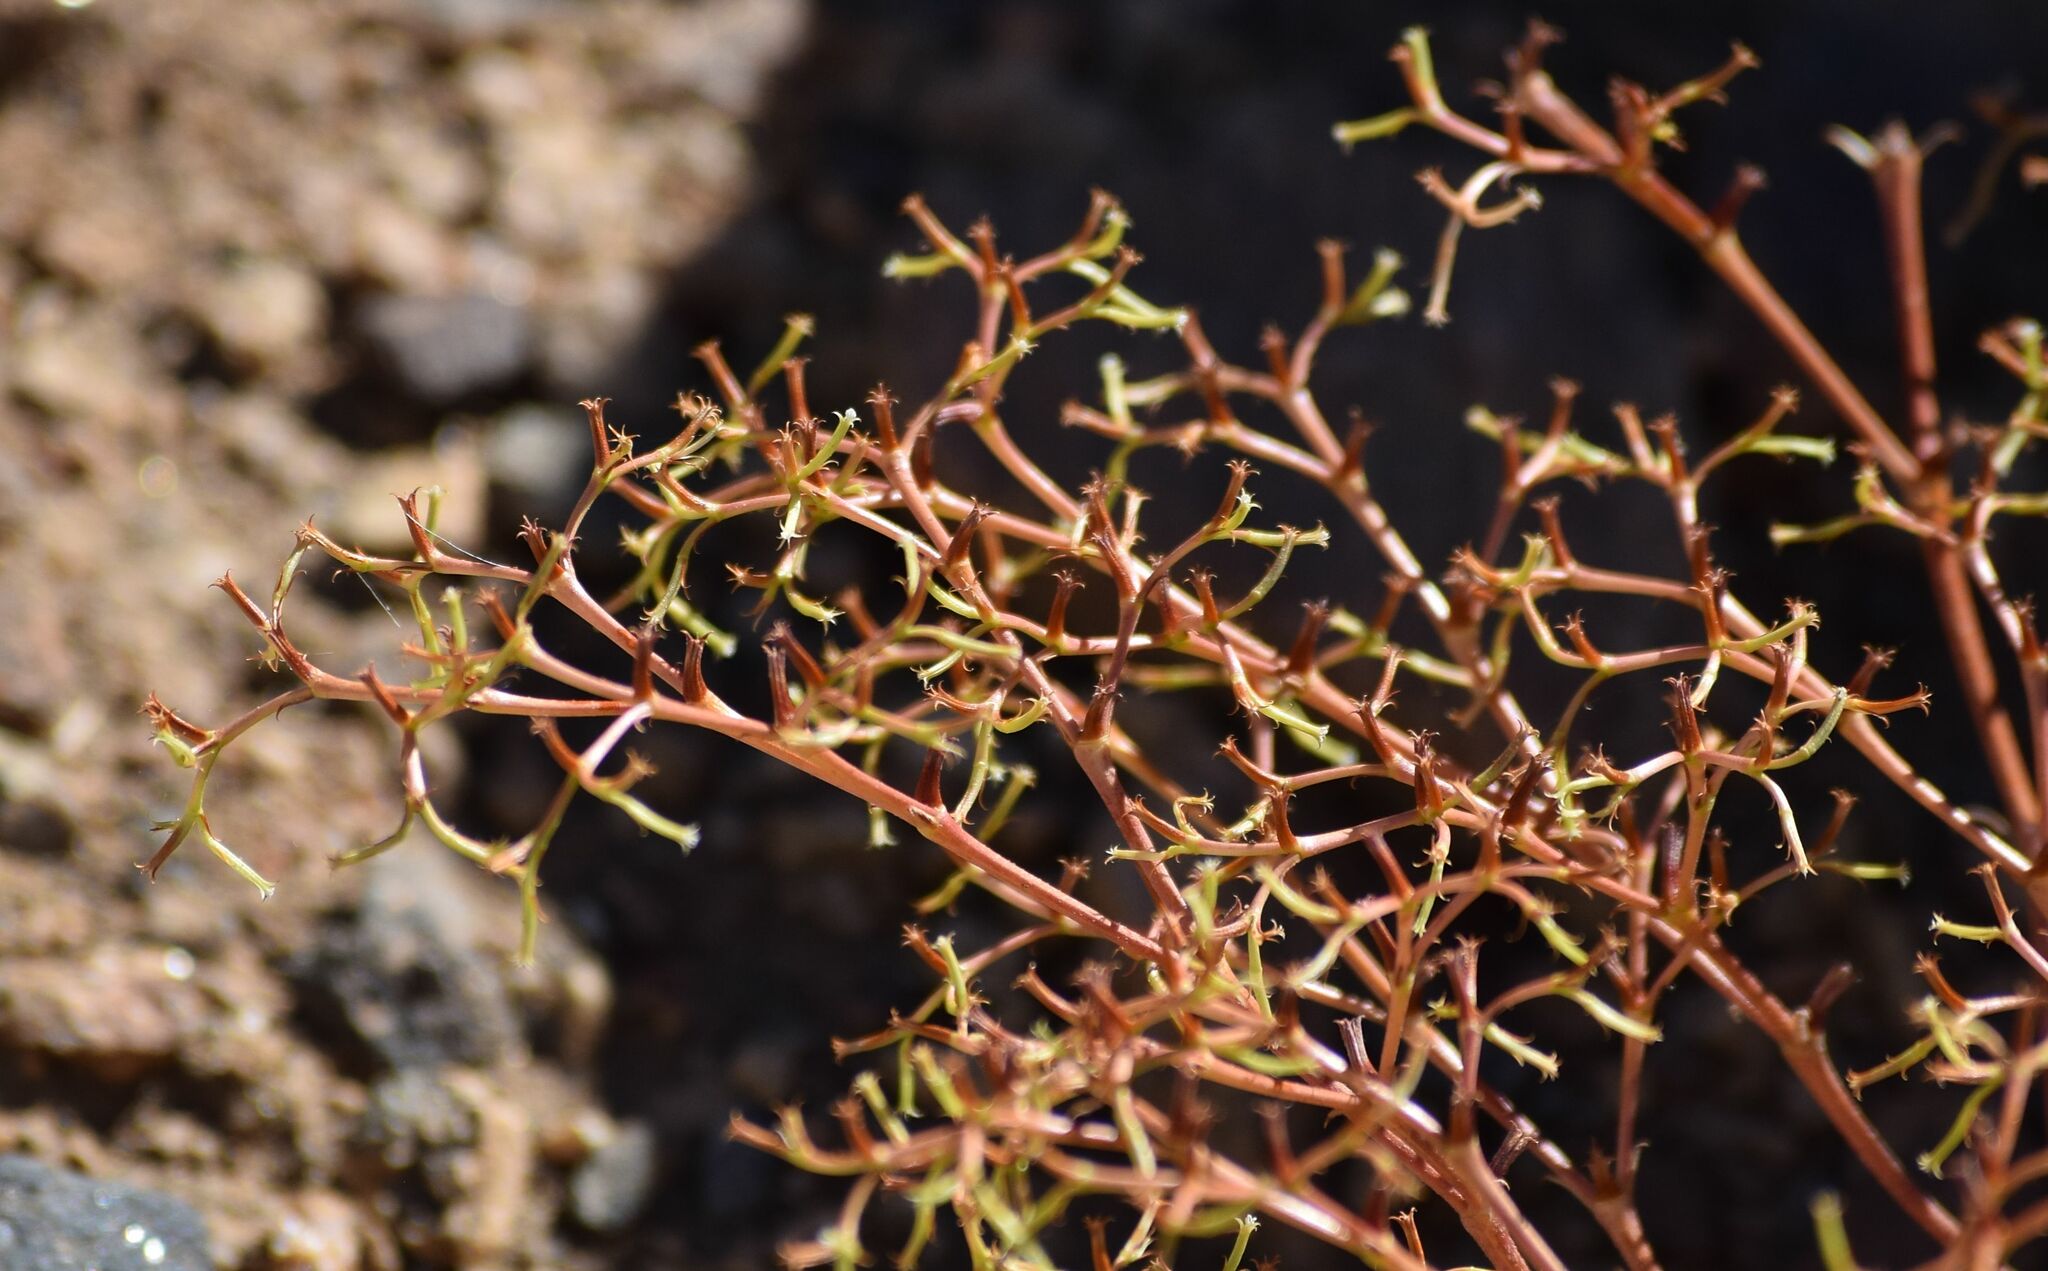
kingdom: Plantae
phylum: Tracheophyta
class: Magnoliopsida
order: Caryophyllales
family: Polygonaceae
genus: Chorizanthe
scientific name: Chorizanthe brevicornu
